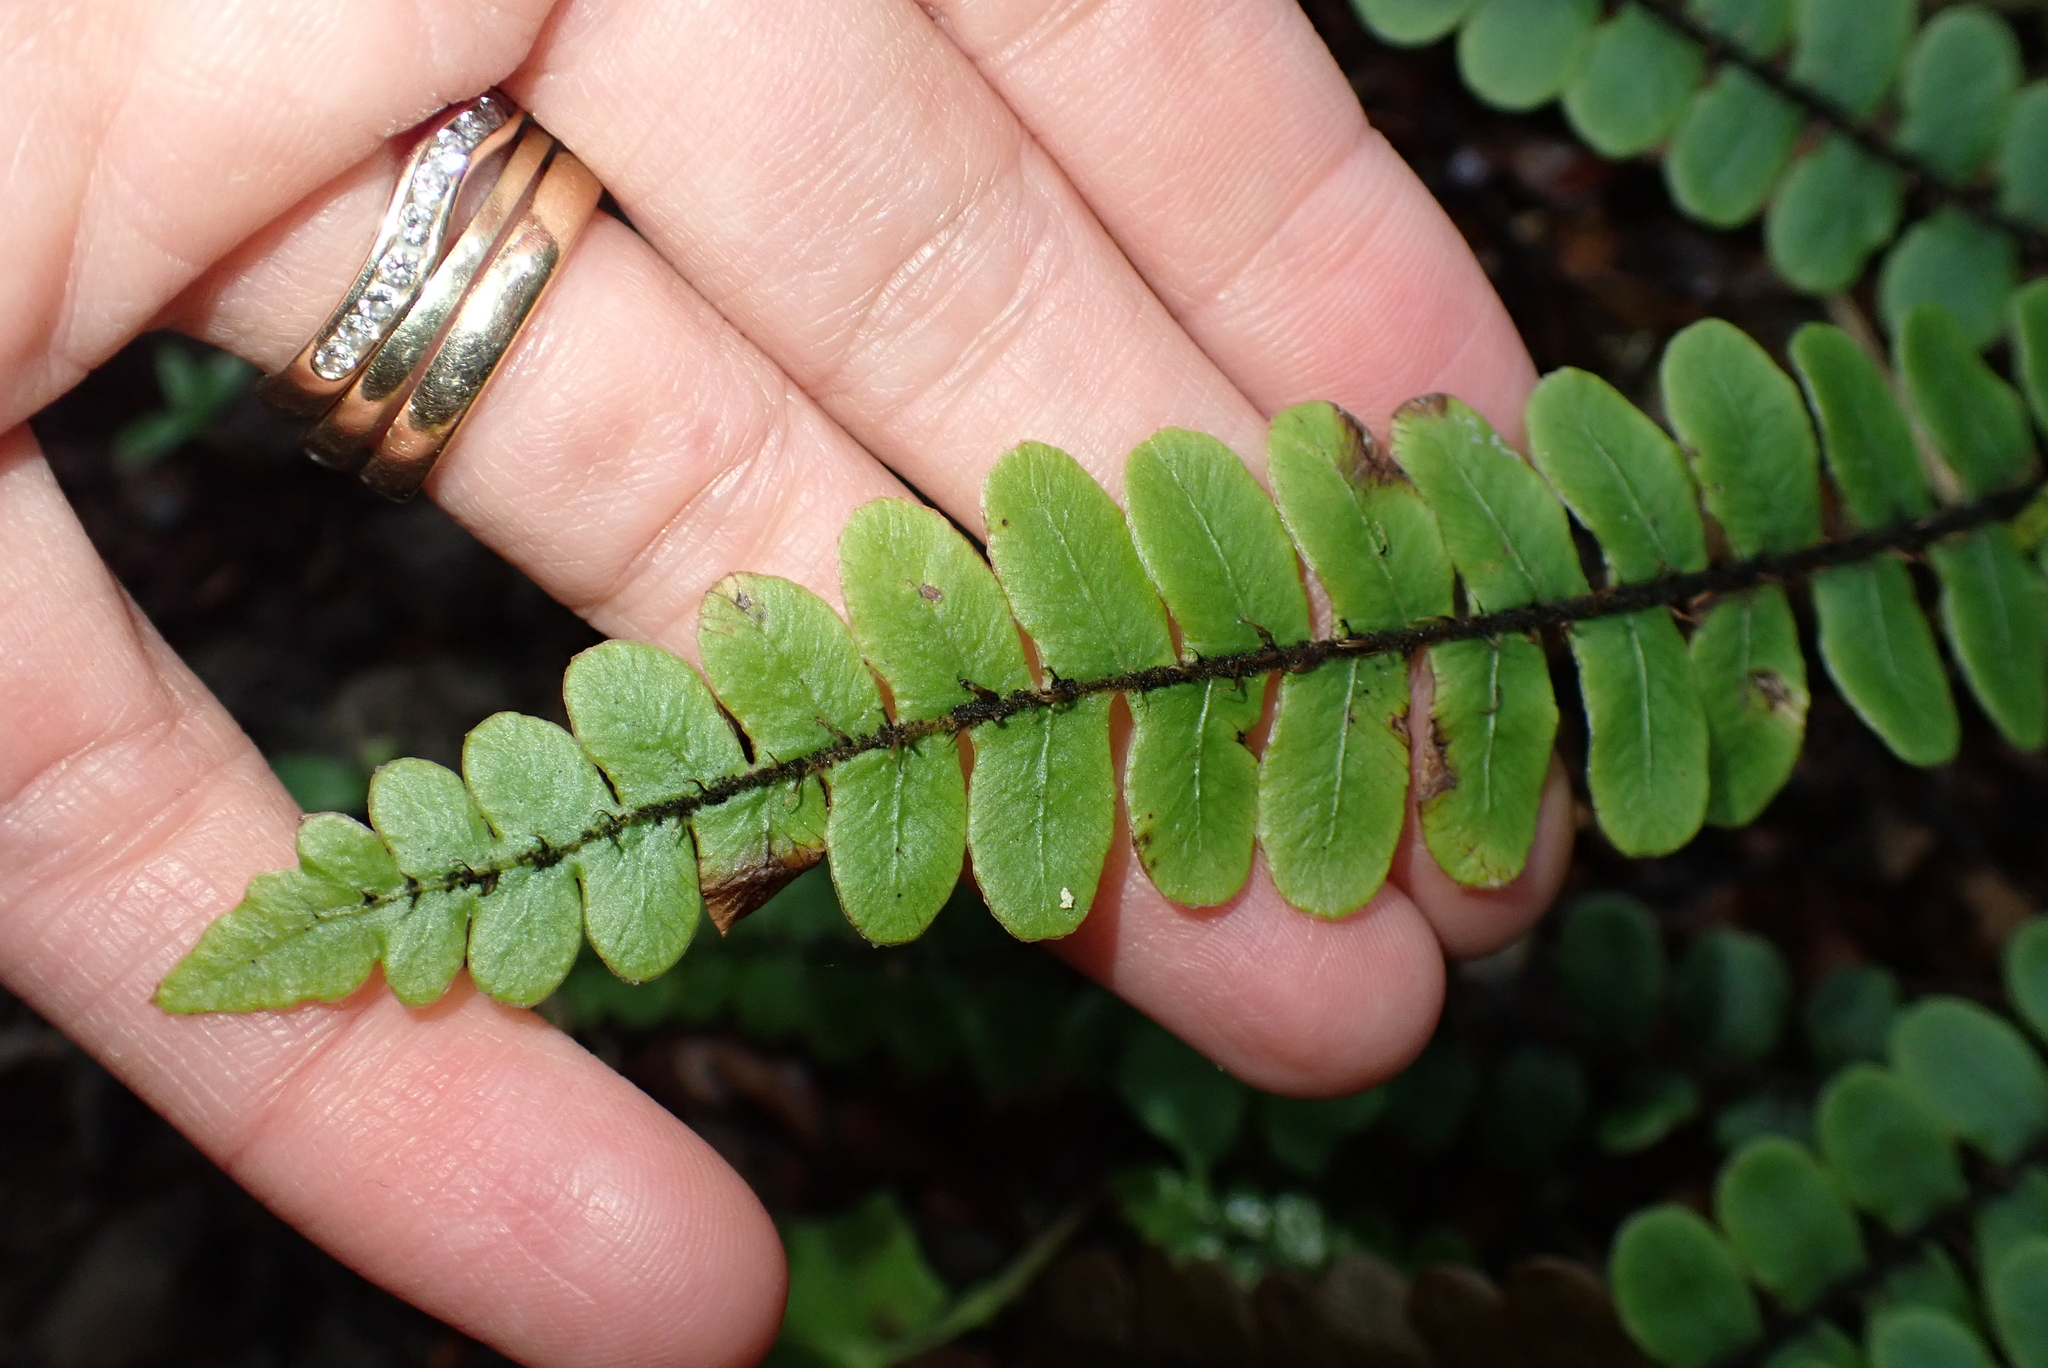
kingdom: Plantae
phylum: Tracheophyta
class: Polypodiopsida
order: Polypodiales
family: Blechnaceae
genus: Cranfillia
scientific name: Cranfillia fluviatilis
